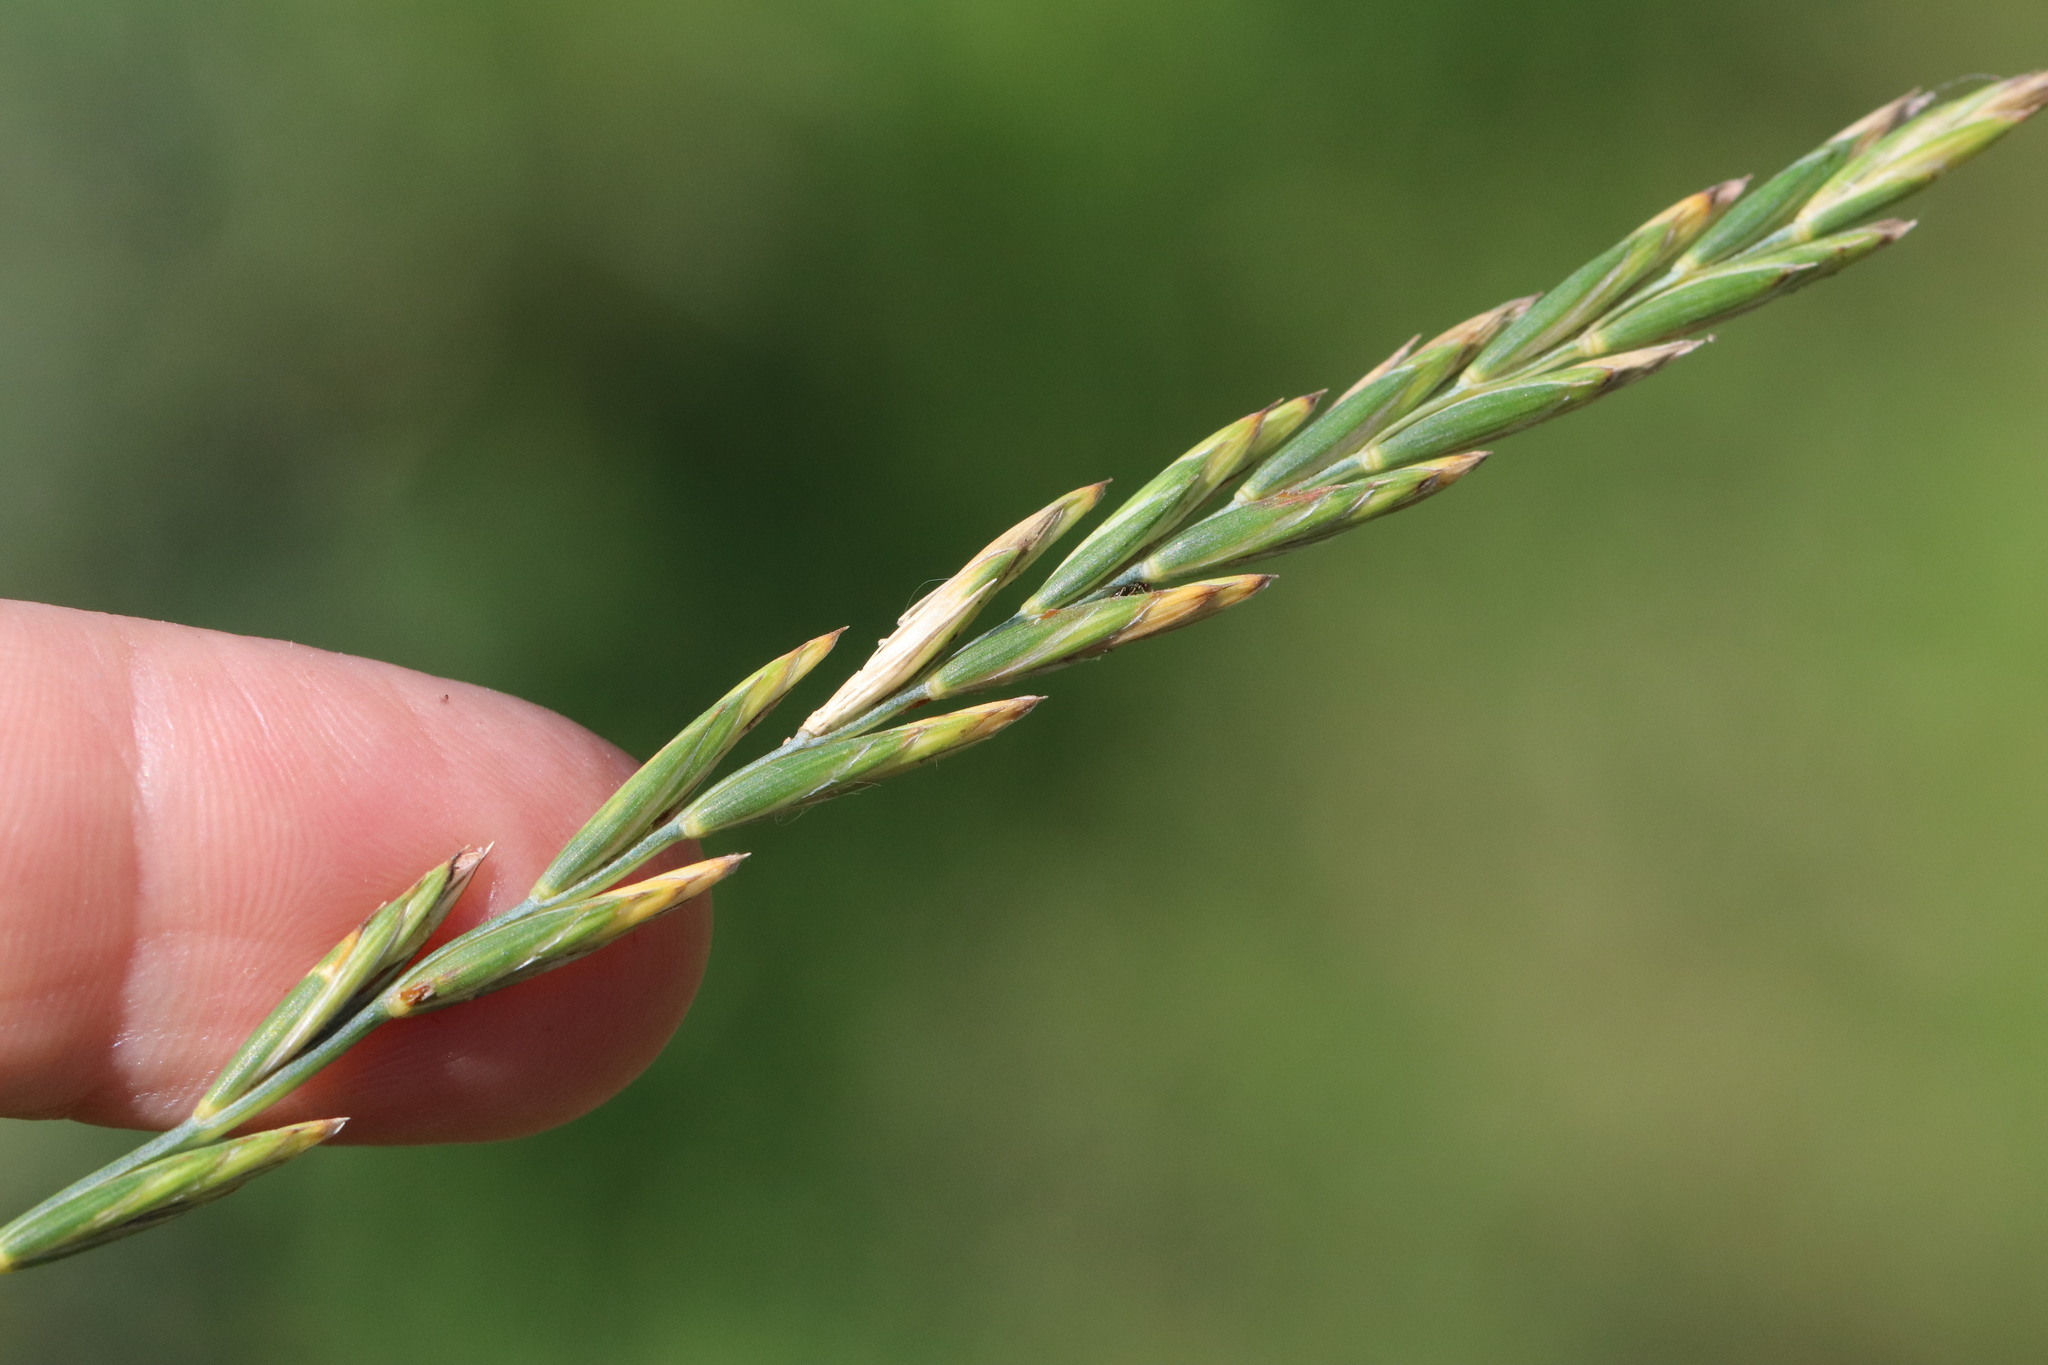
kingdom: Plantae
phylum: Tracheophyta
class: Liliopsida
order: Poales
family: Poaceae
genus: Elymus
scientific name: Elymus repens
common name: Quackgrass
